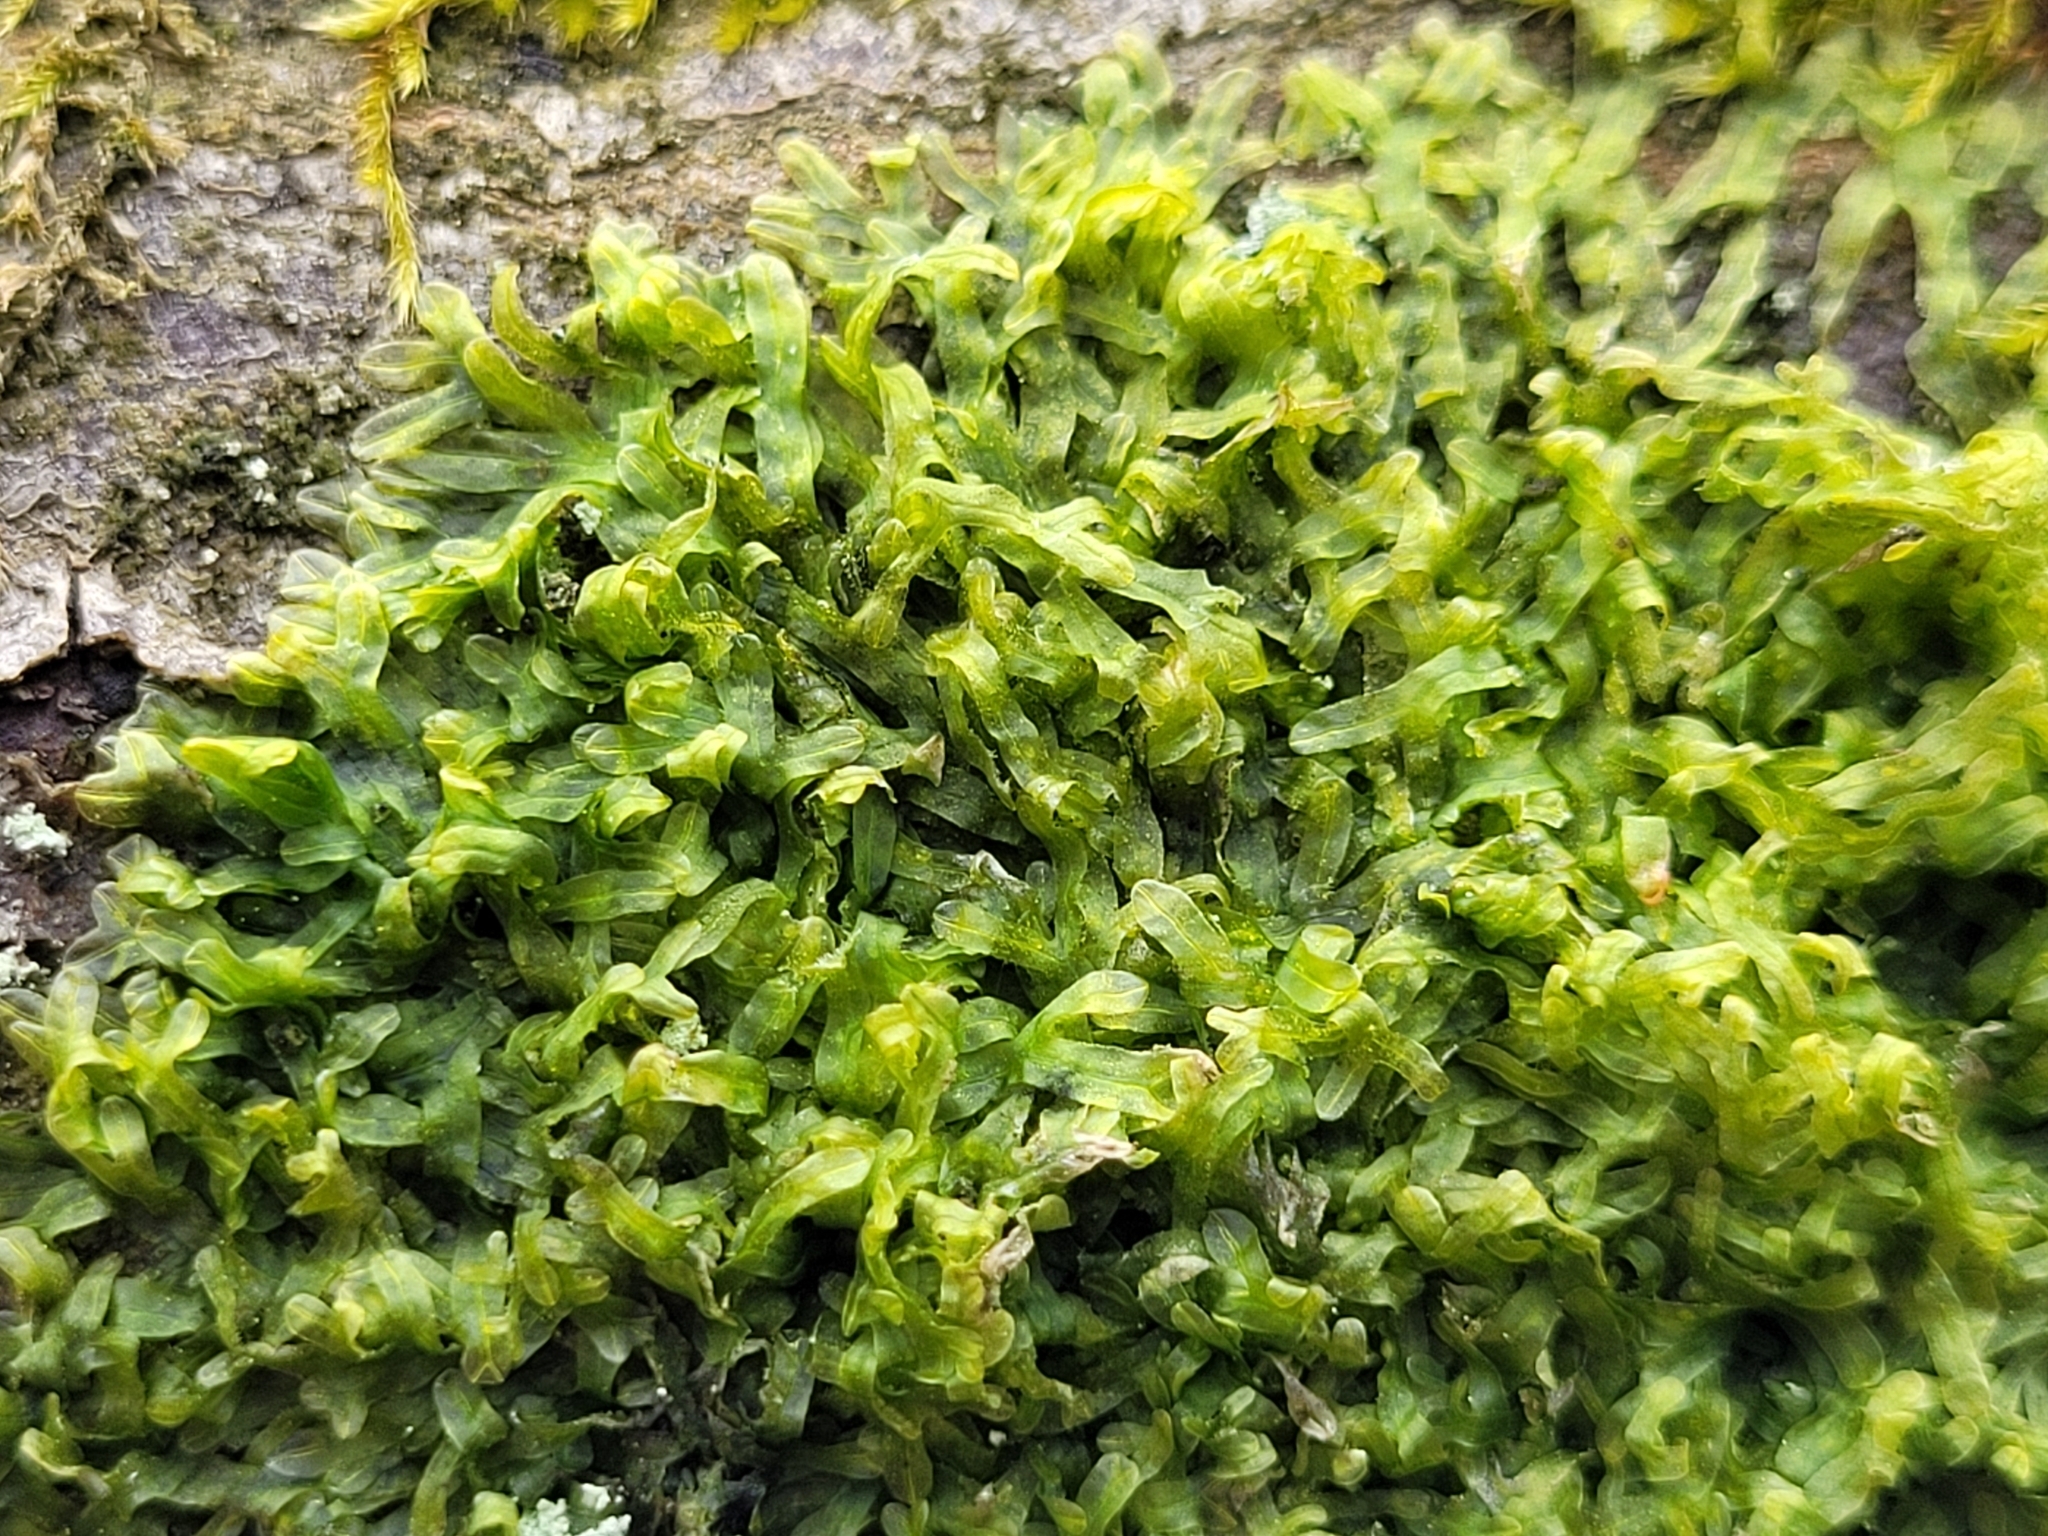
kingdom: Plantae
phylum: Marchantiophyta
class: Jungermanniopsida
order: Metzgeriales
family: Metzgeriaceae
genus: Metzgeria
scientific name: Metzgeria furcata
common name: Forked veilwort
